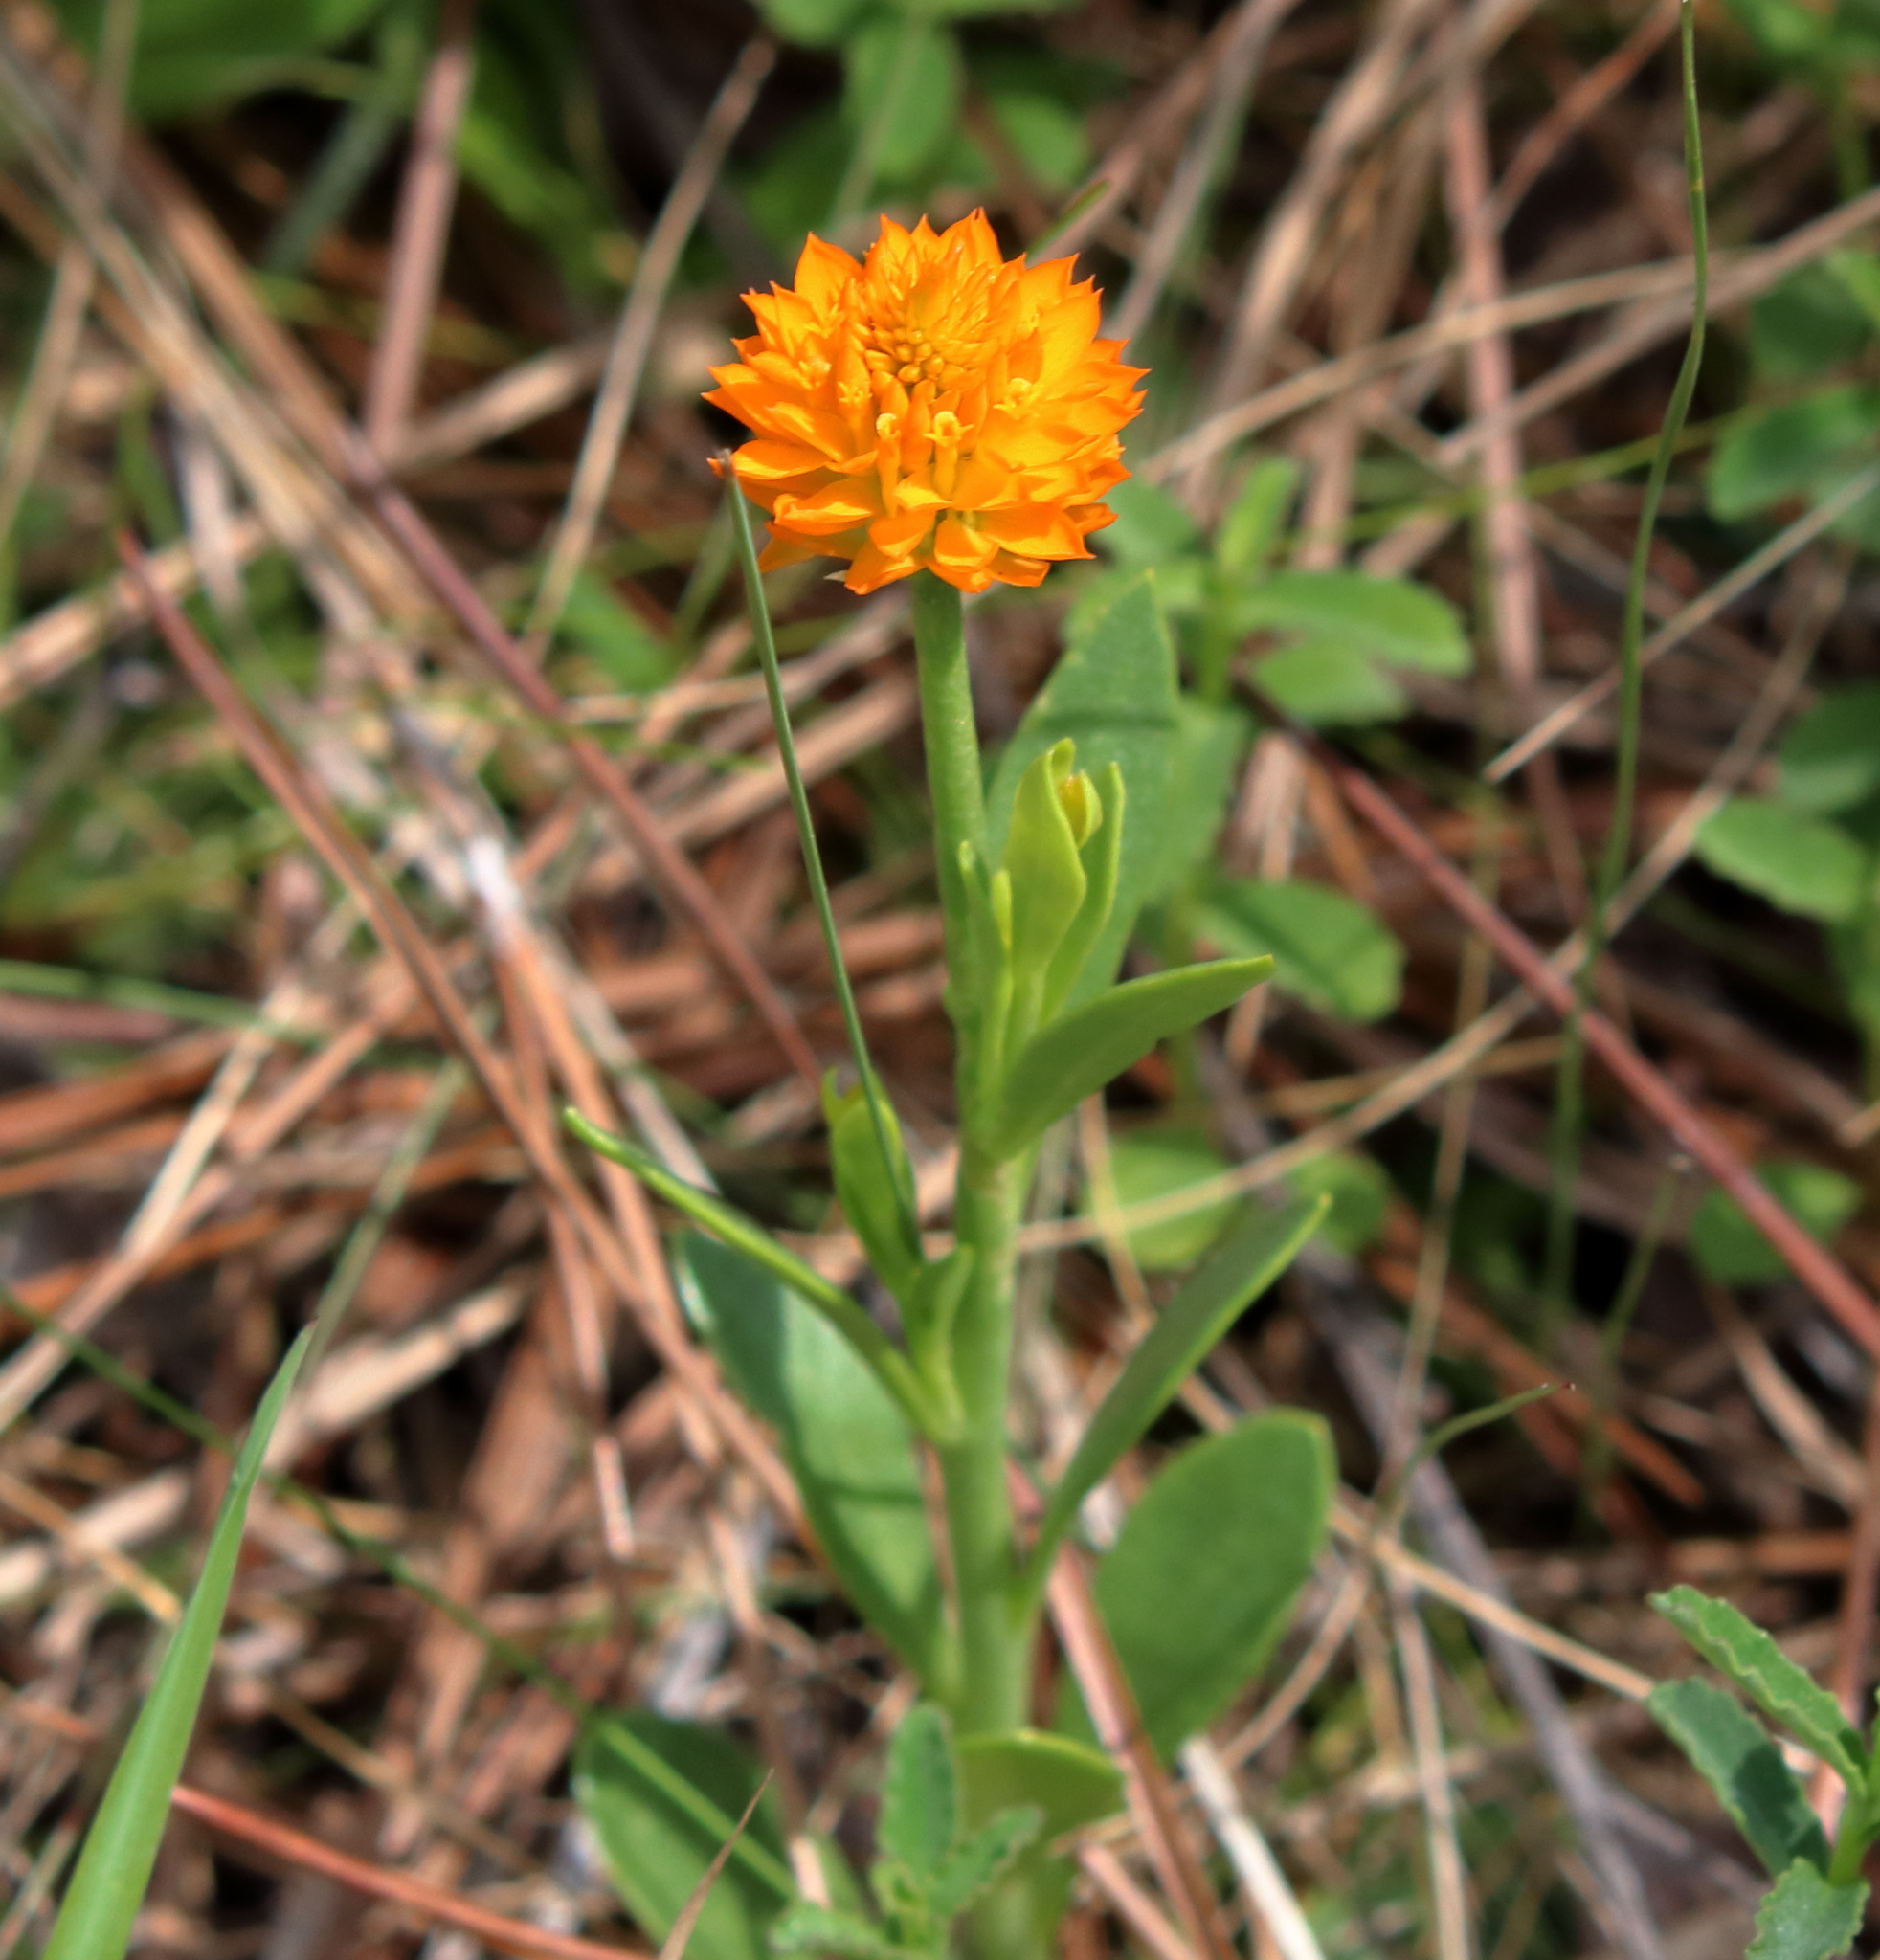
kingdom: Plantae
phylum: Tracheophyta
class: Magnoliopsida
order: Fabales
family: Polygalaceae
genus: Polygala
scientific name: Polygala lutea
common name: Orange milkwort
